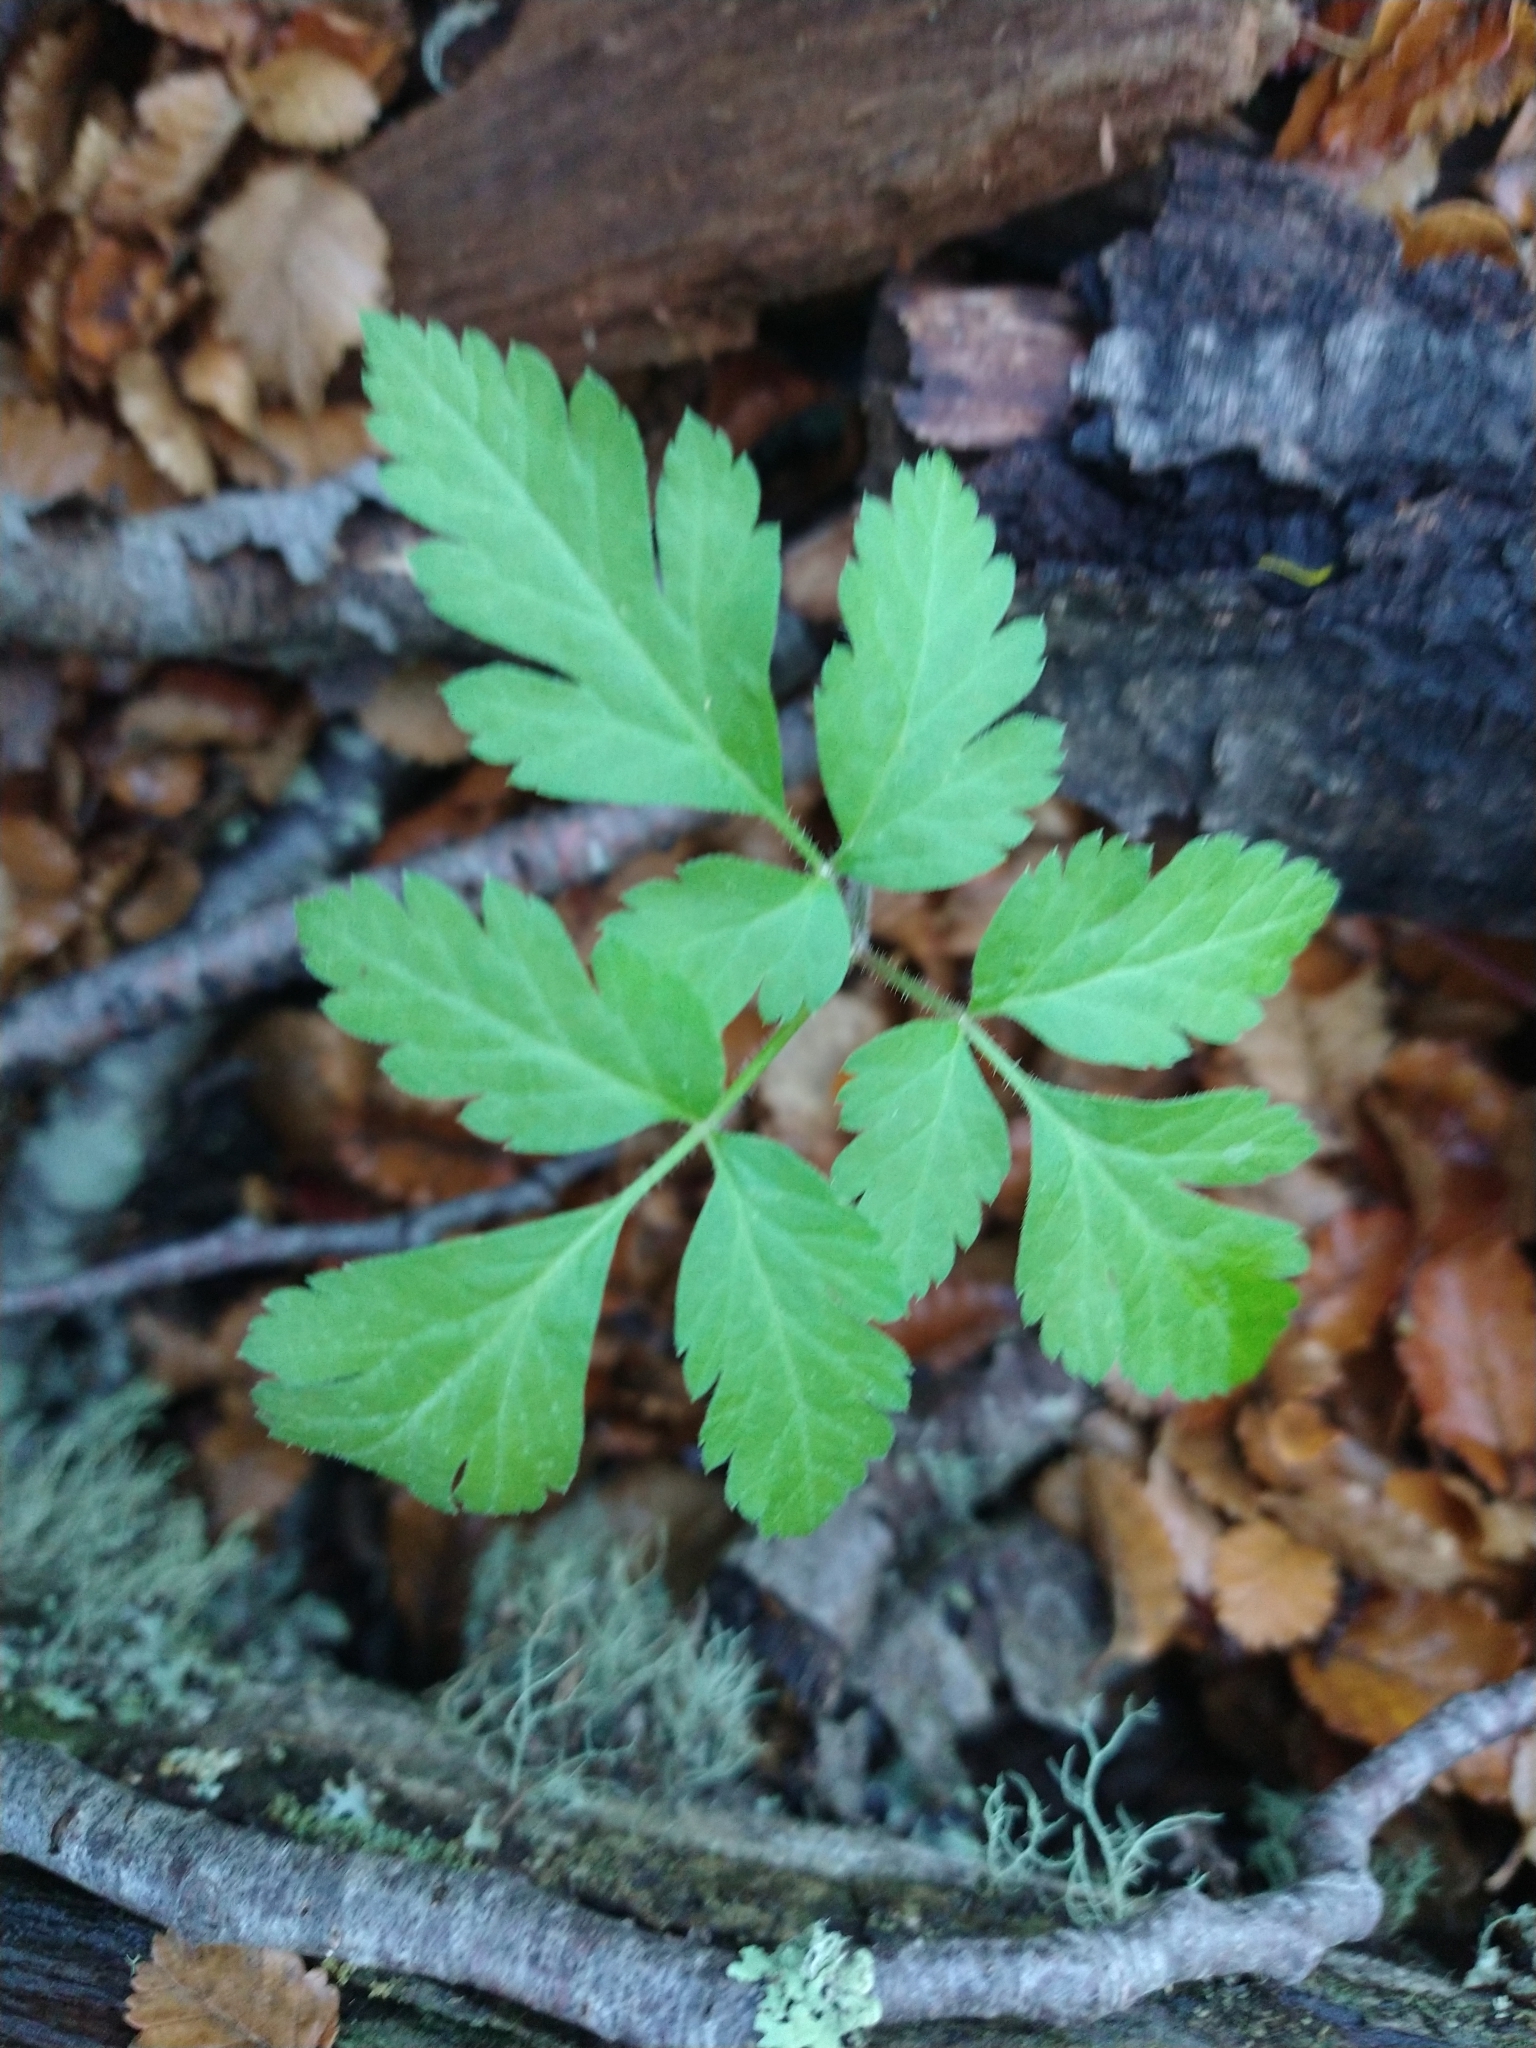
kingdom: Plantae
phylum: Tracheophyta
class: Magnoliopsida
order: Apiales
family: Apiaceae
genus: Osmorhiza
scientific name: Osmorhiza berteroi
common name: Mountain sweet cicely
